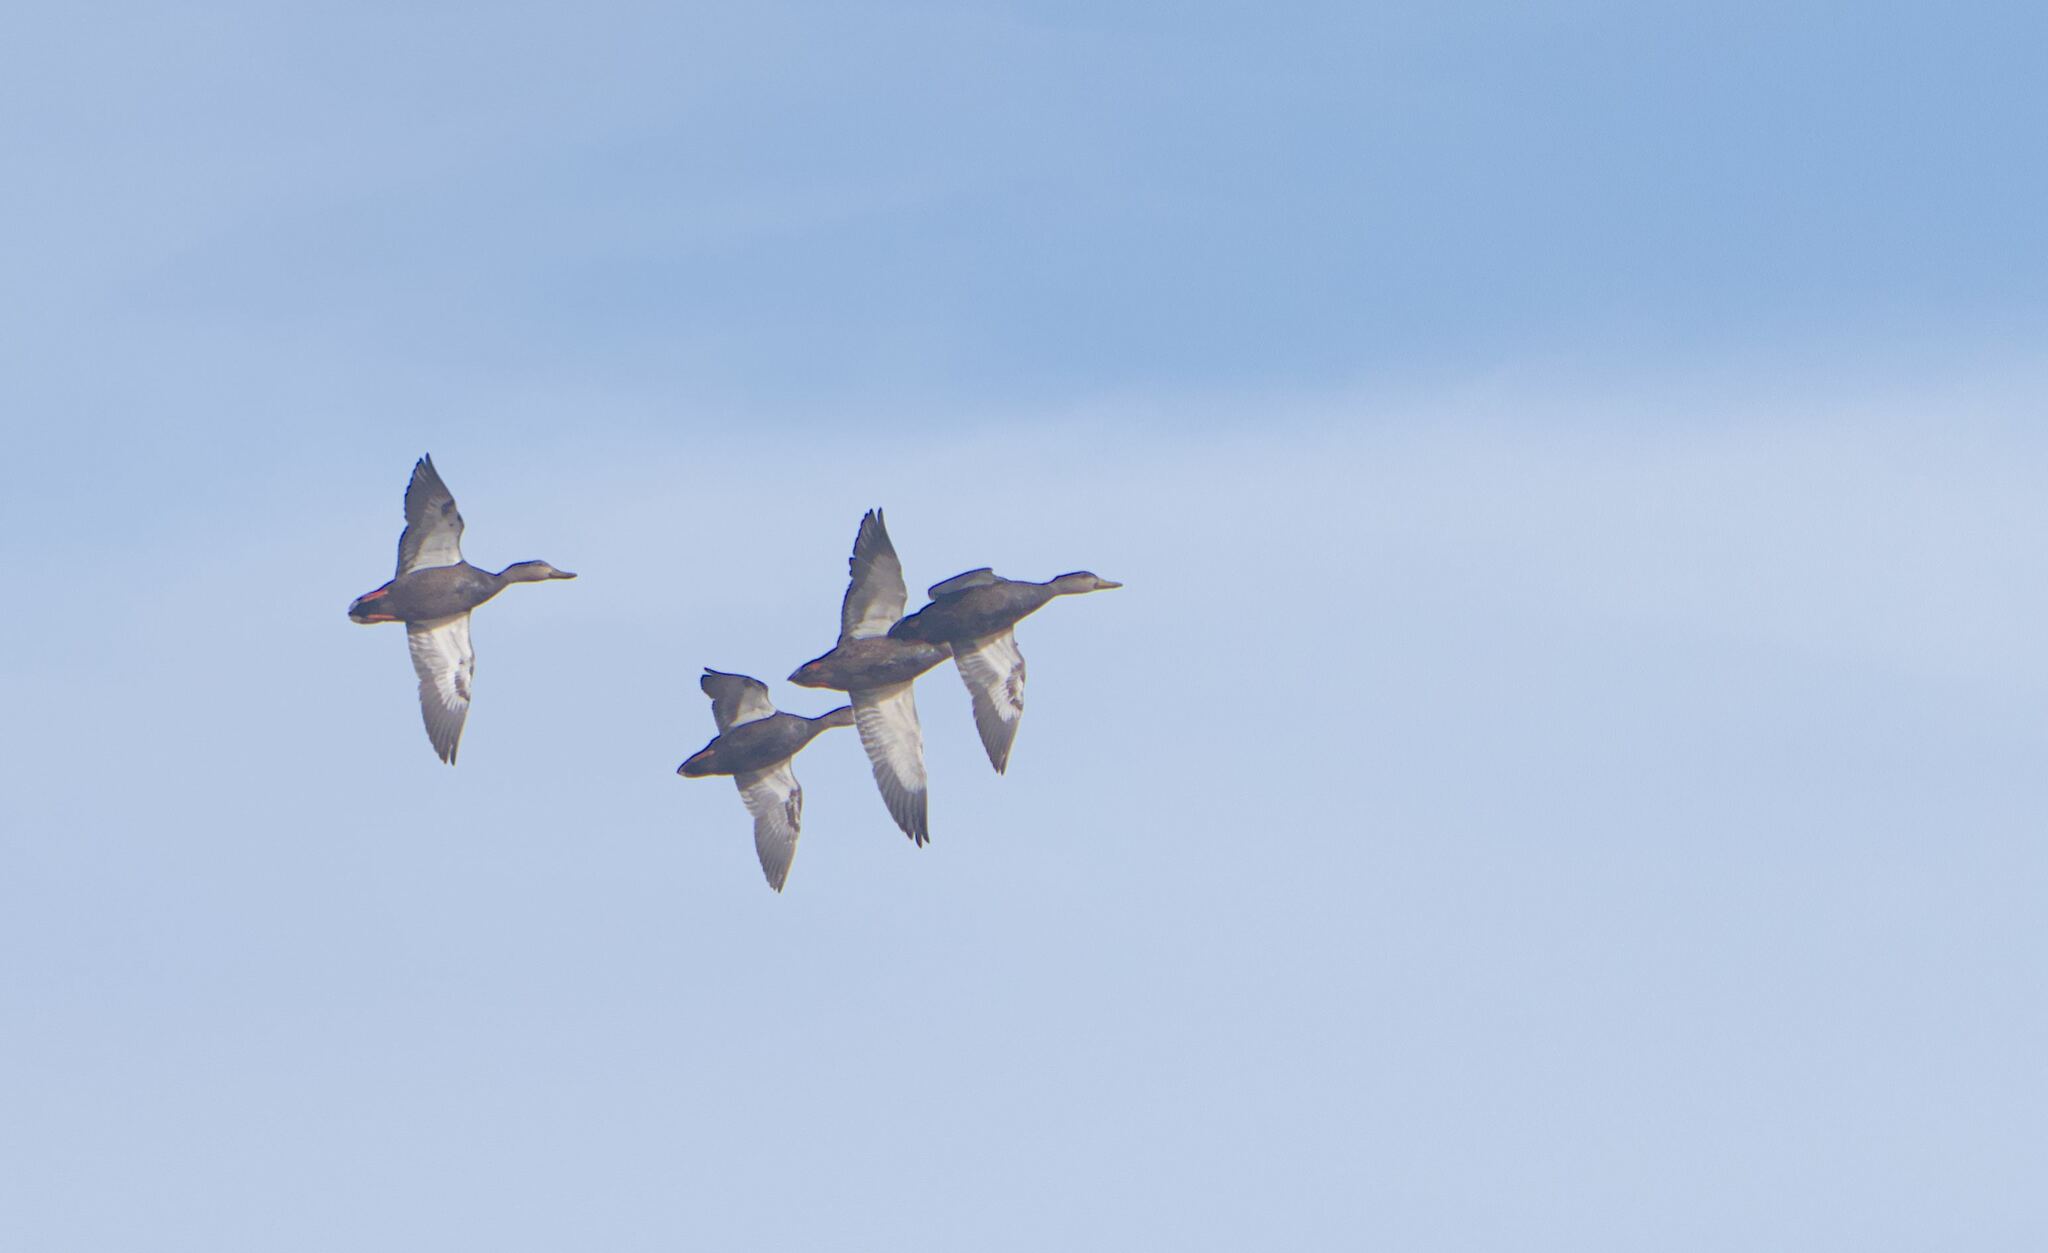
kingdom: Animalia
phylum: Chordata
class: Aves
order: Anseriformes
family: Anatidae
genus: Anas
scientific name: Anas rubripes
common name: American black duck
